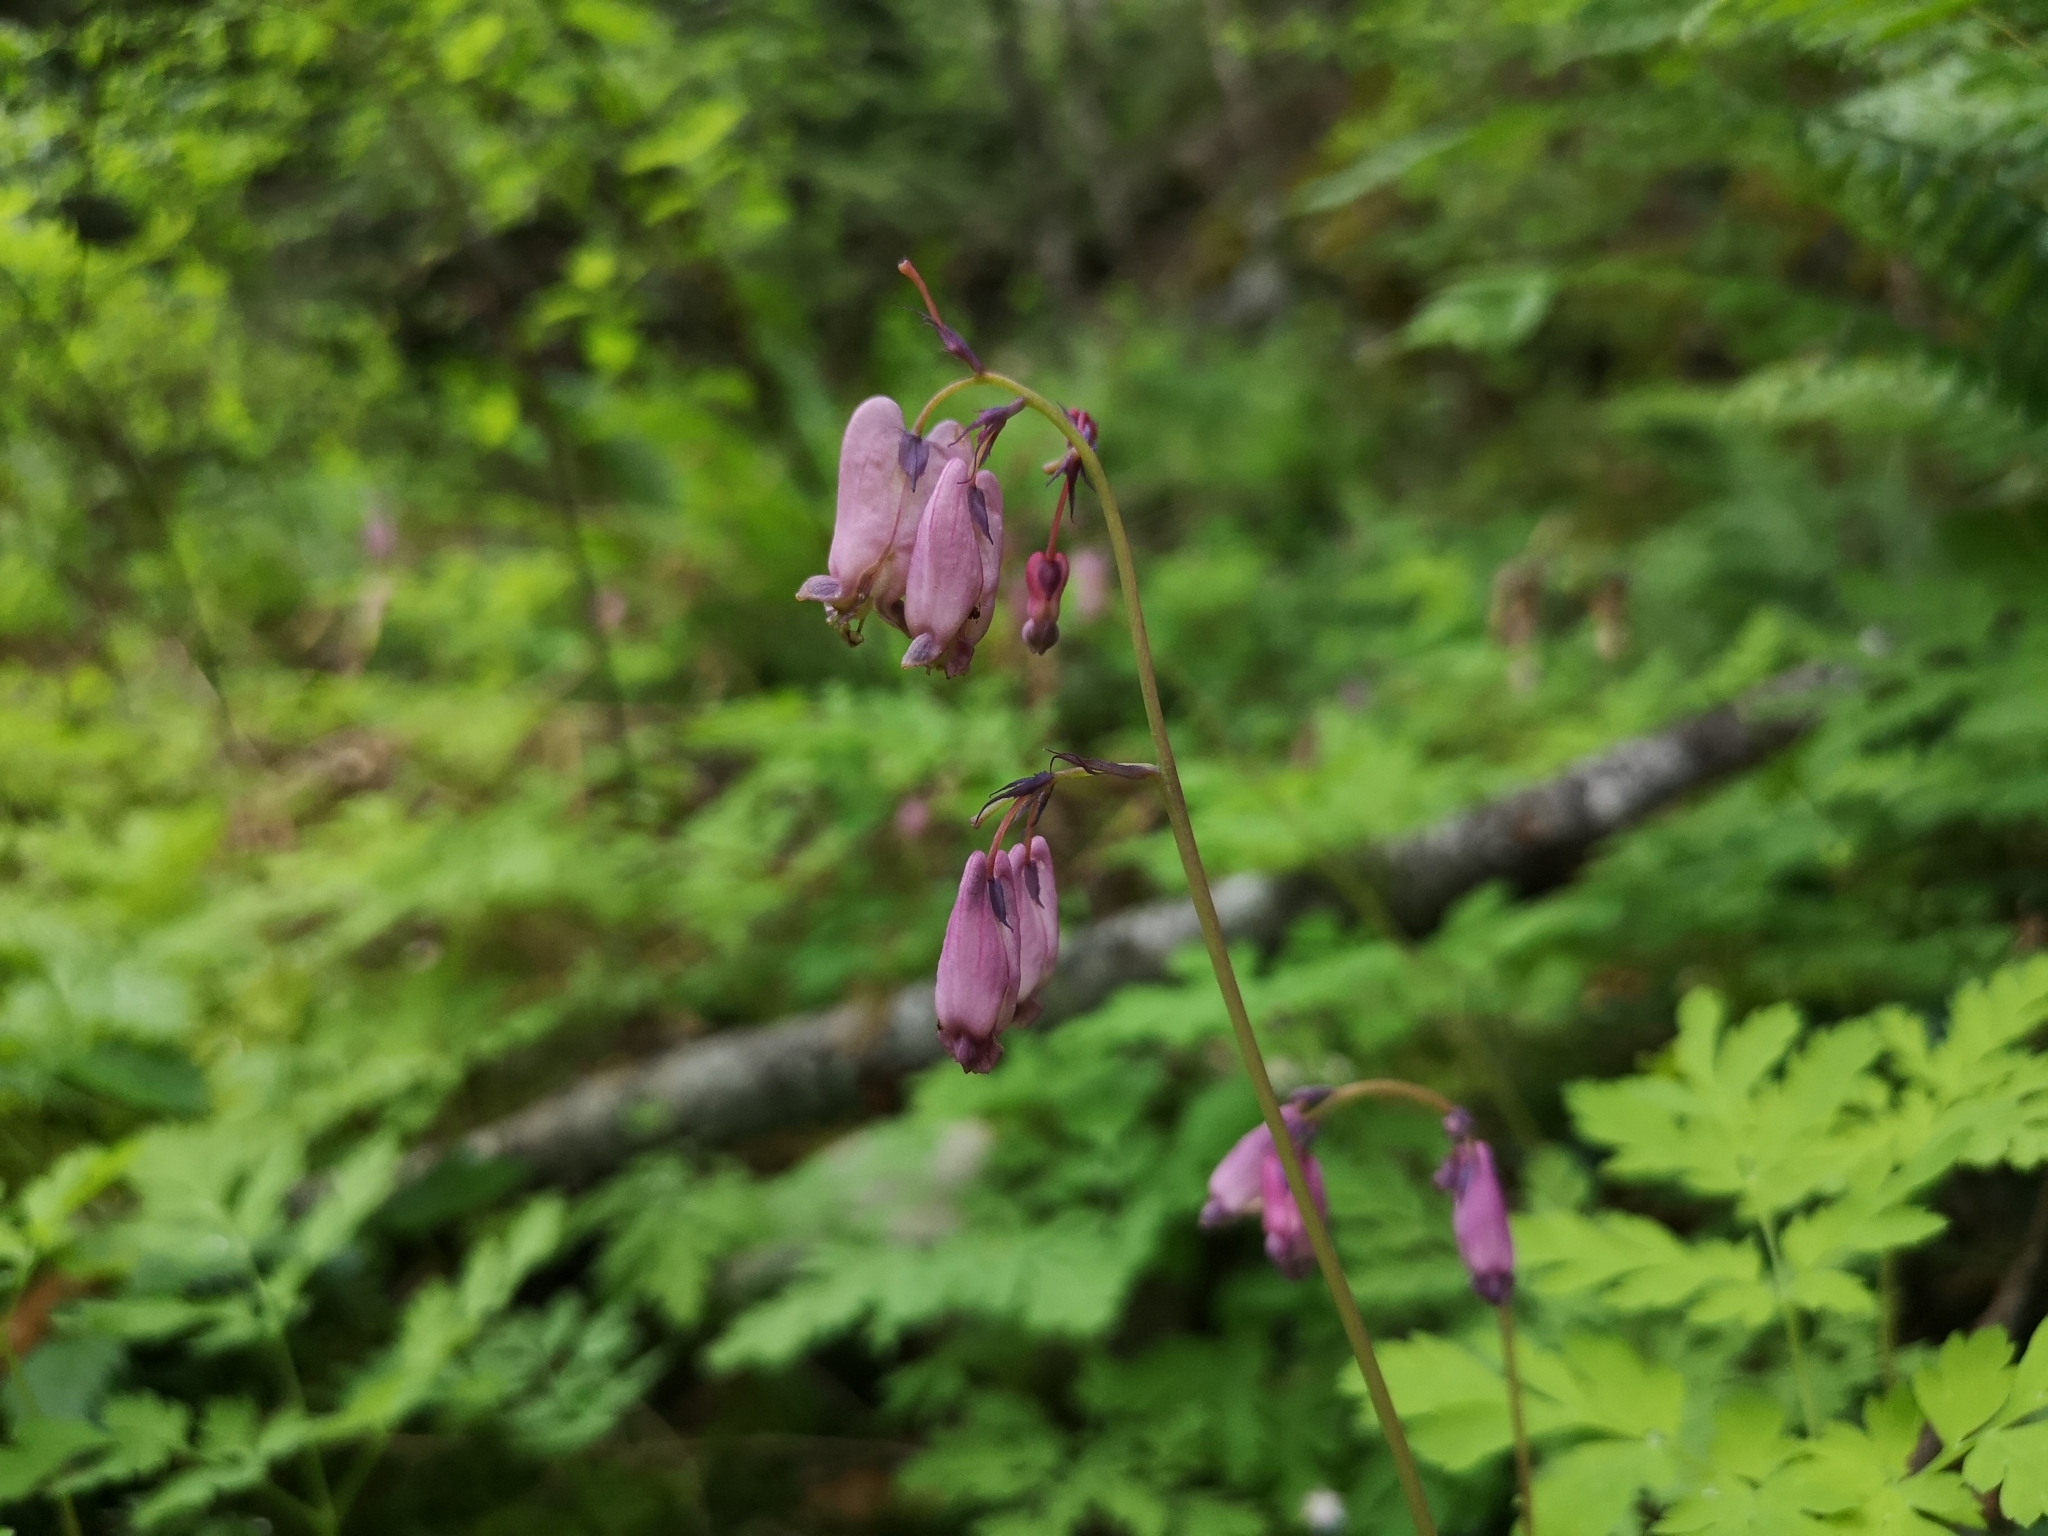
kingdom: Plantae
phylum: Tracheophyta
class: Magnoliopsida
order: Ranunculales
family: Papaveraceae
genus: Dicentra
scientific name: Dicentra formosa
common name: Bleeding-heart
